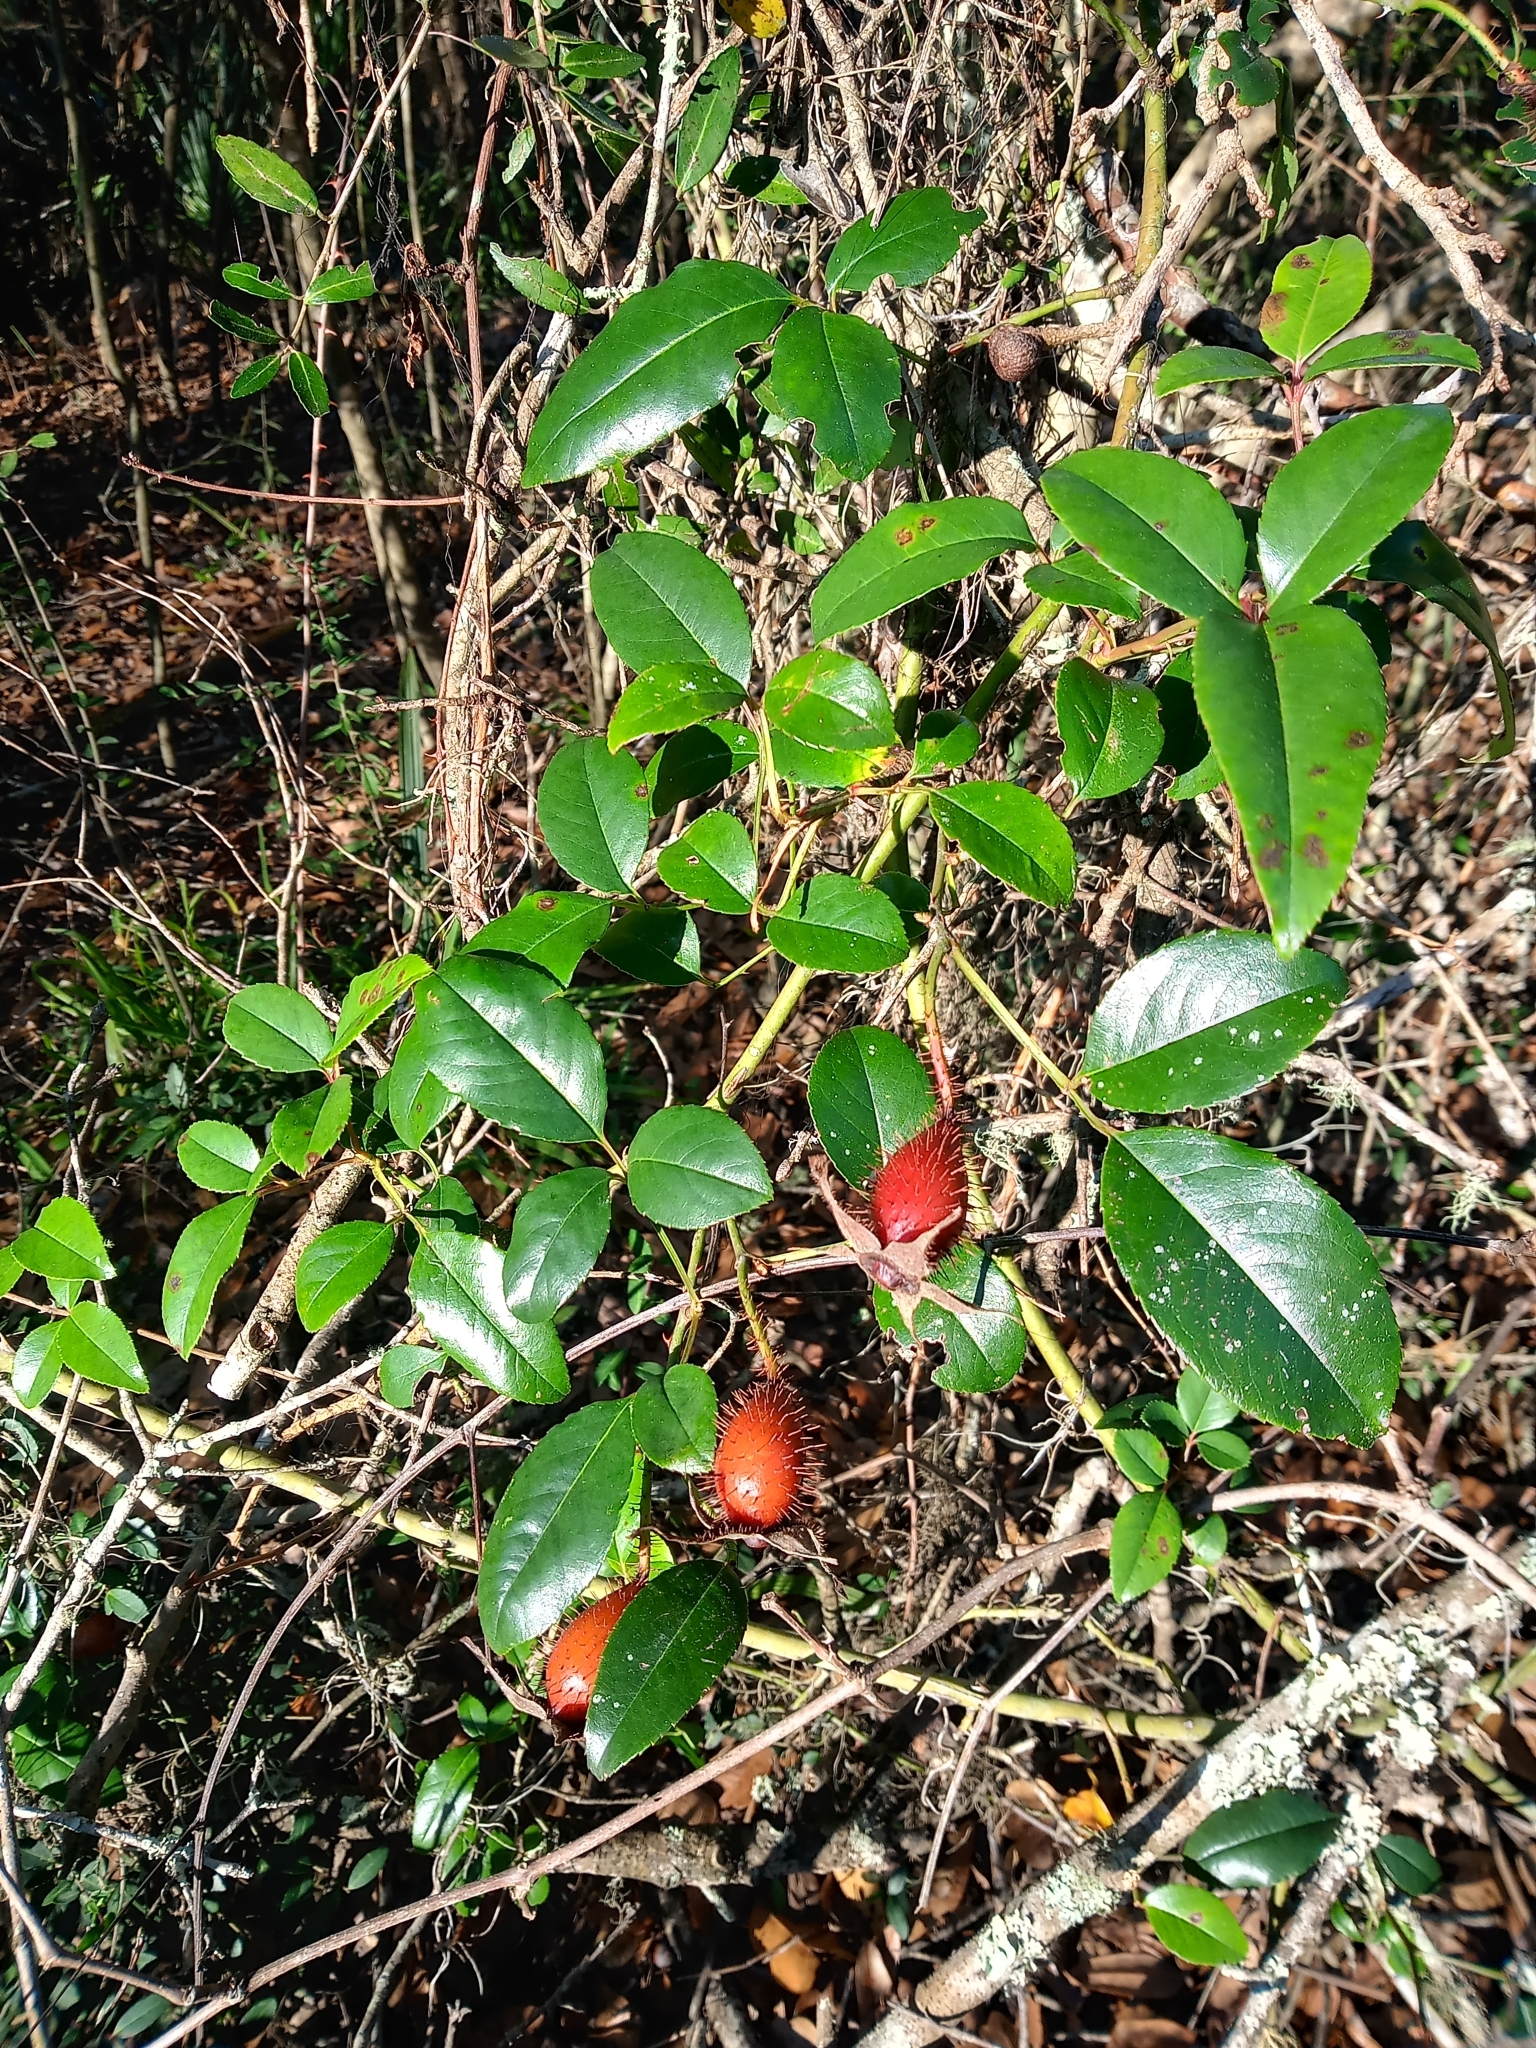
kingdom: Plantae
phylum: Tracheophyta
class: Magnoliopsida
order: Rosales
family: Rosaceae
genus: Rosa
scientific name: Rosa laevigata
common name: Cherokee rose
